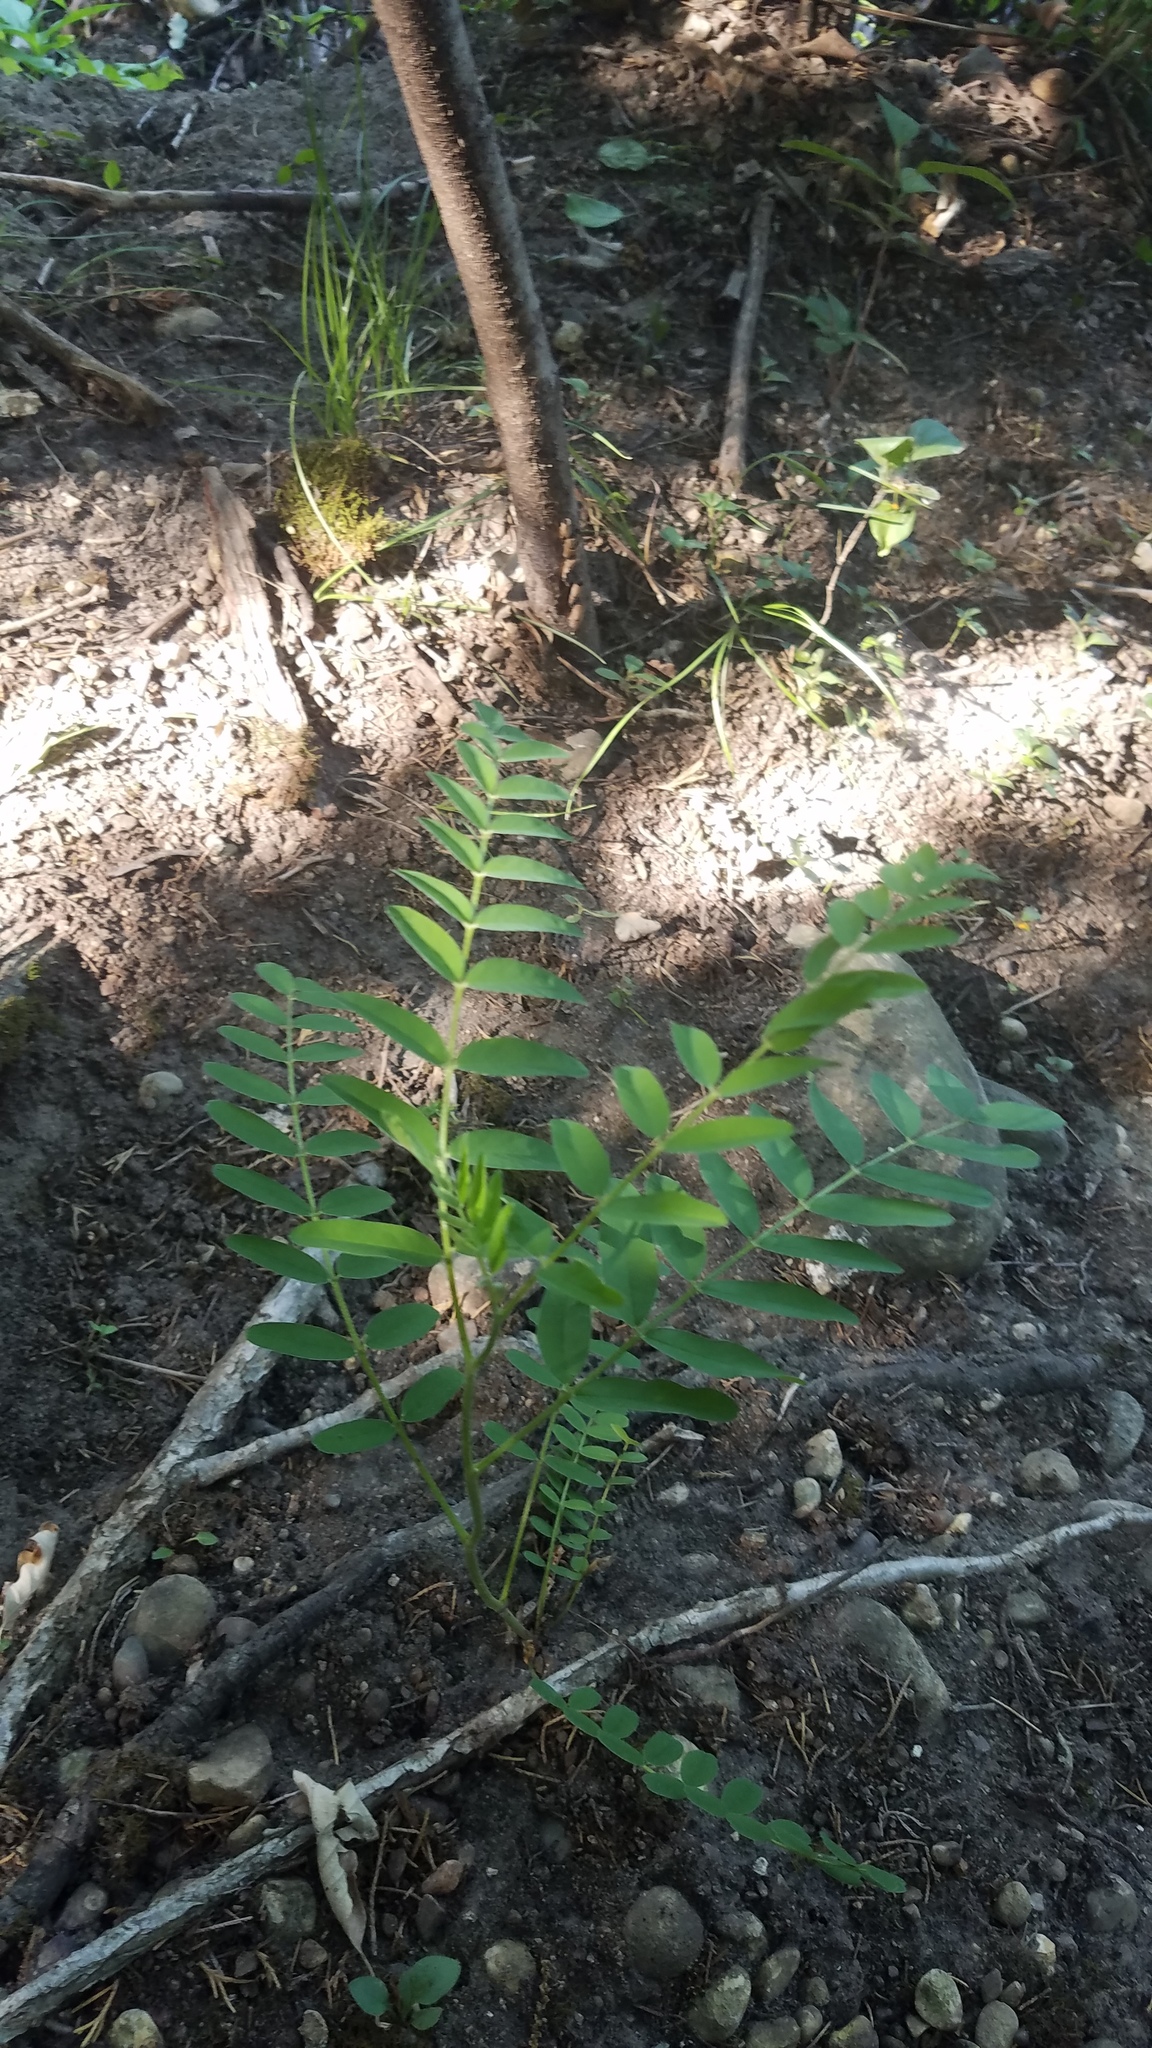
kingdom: Plantae
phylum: Tracheophyta
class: Magnoliopsida
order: Fabales
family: Fabaceae
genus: Gleditsia
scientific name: Gleditsia triacanthos
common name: Common honeylocust
